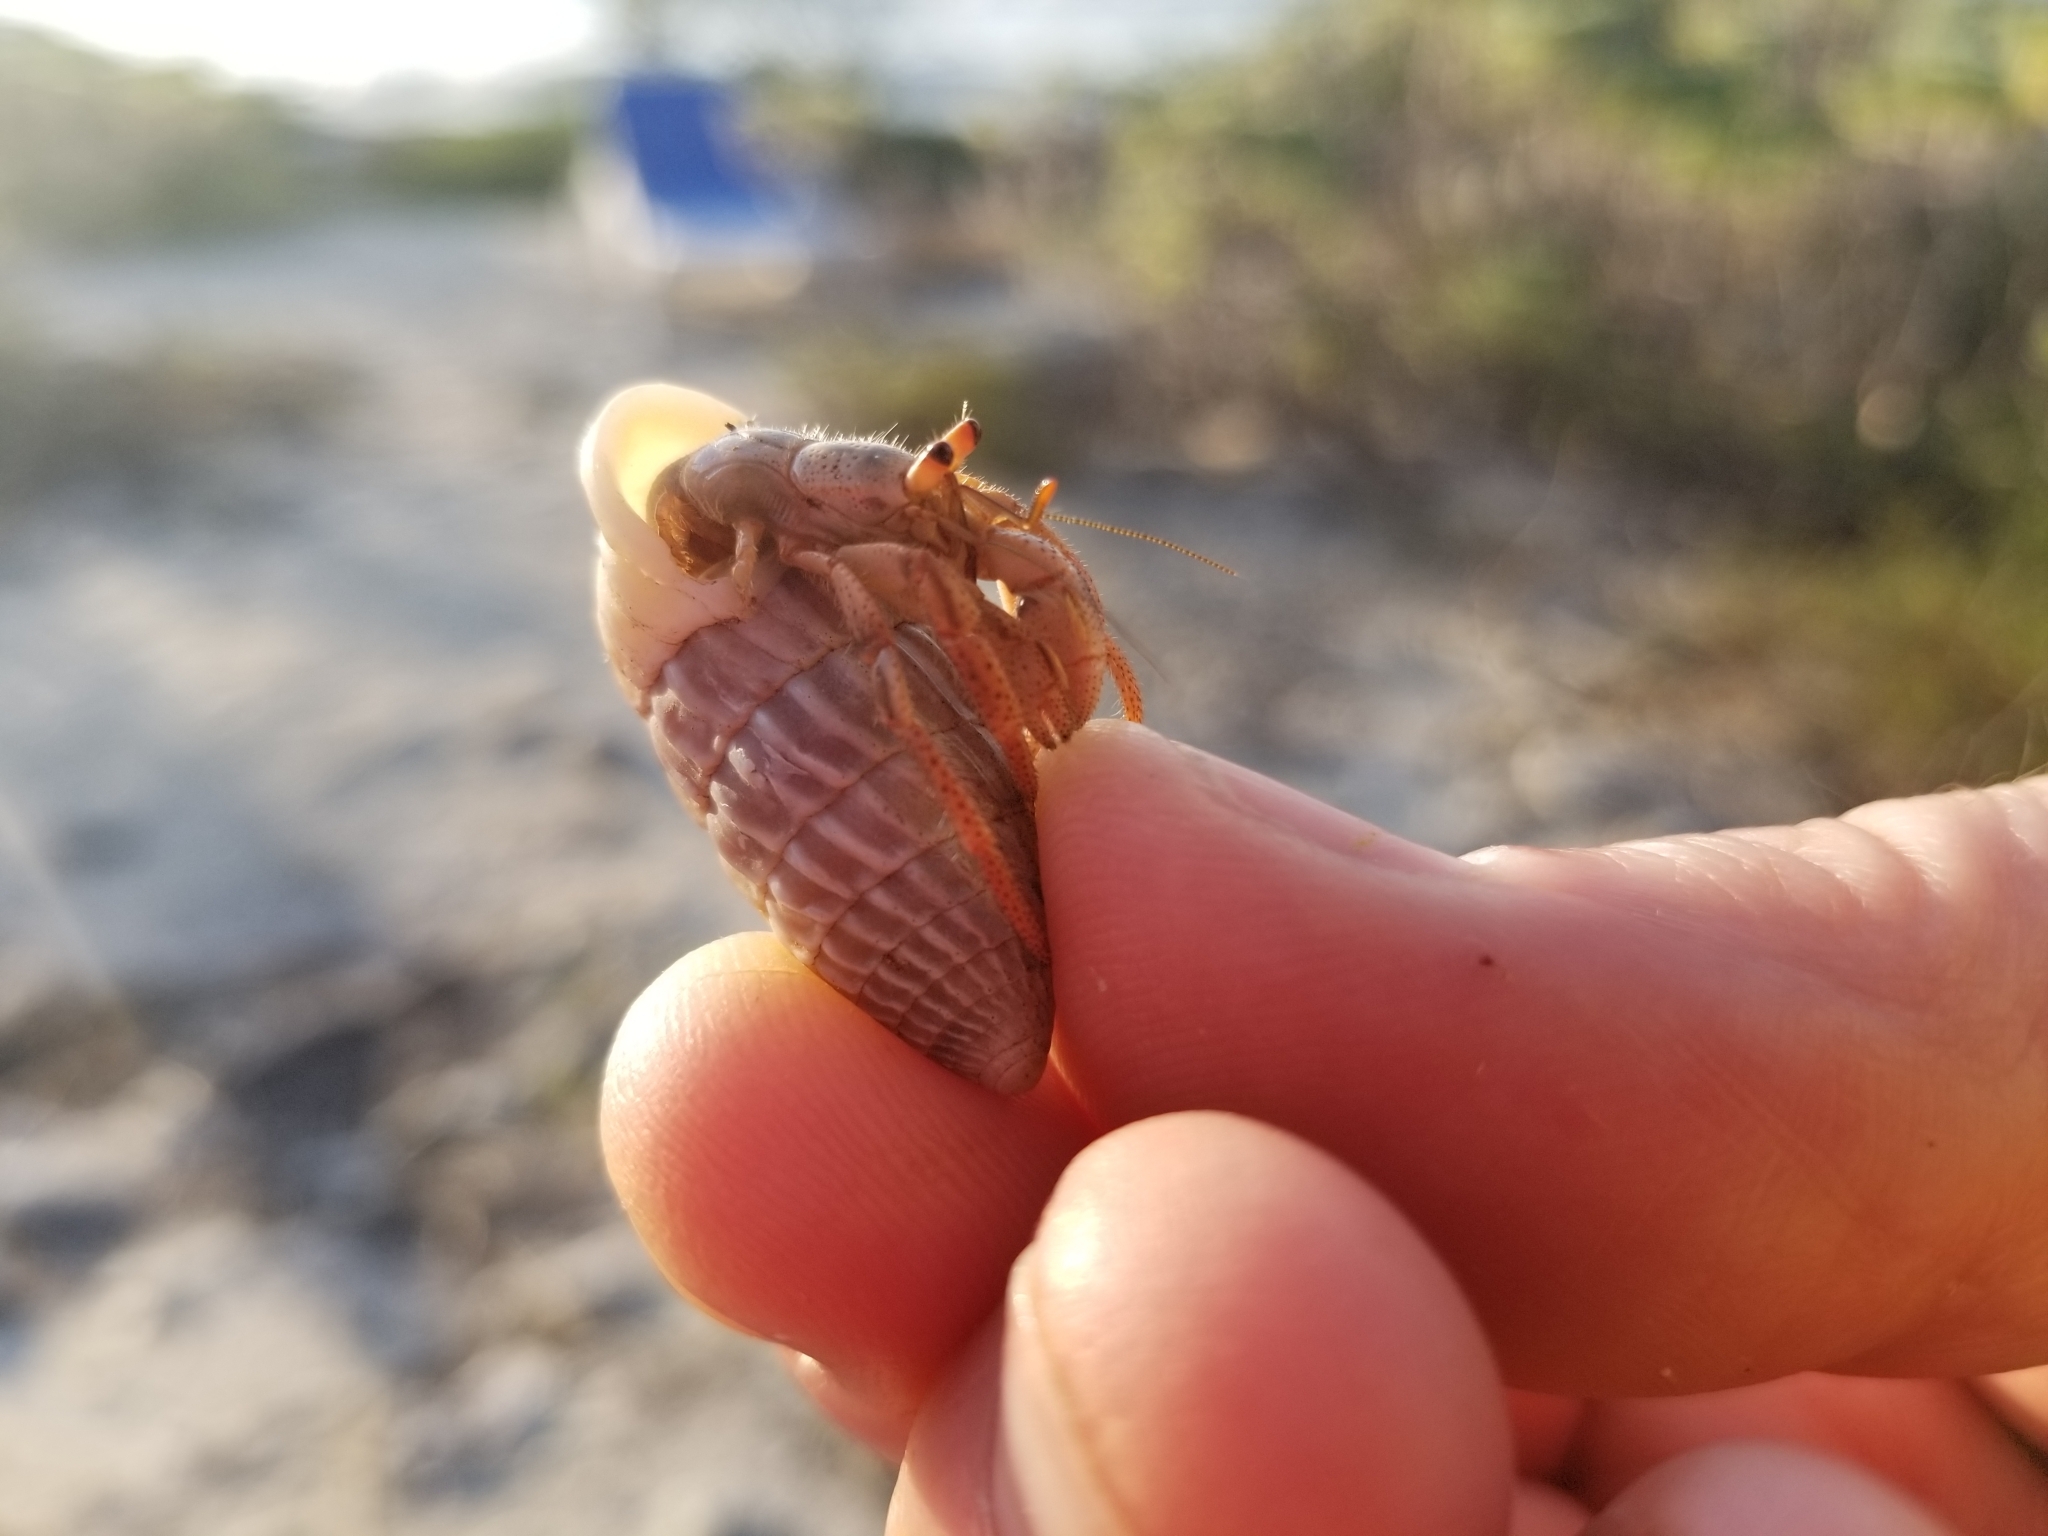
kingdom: Animalia
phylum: Arthropoda
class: Malacostraca
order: Decapoda
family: Coenobitidae
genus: Coenobita
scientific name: Coenobita clypeatus
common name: Caribbean hermit crab
